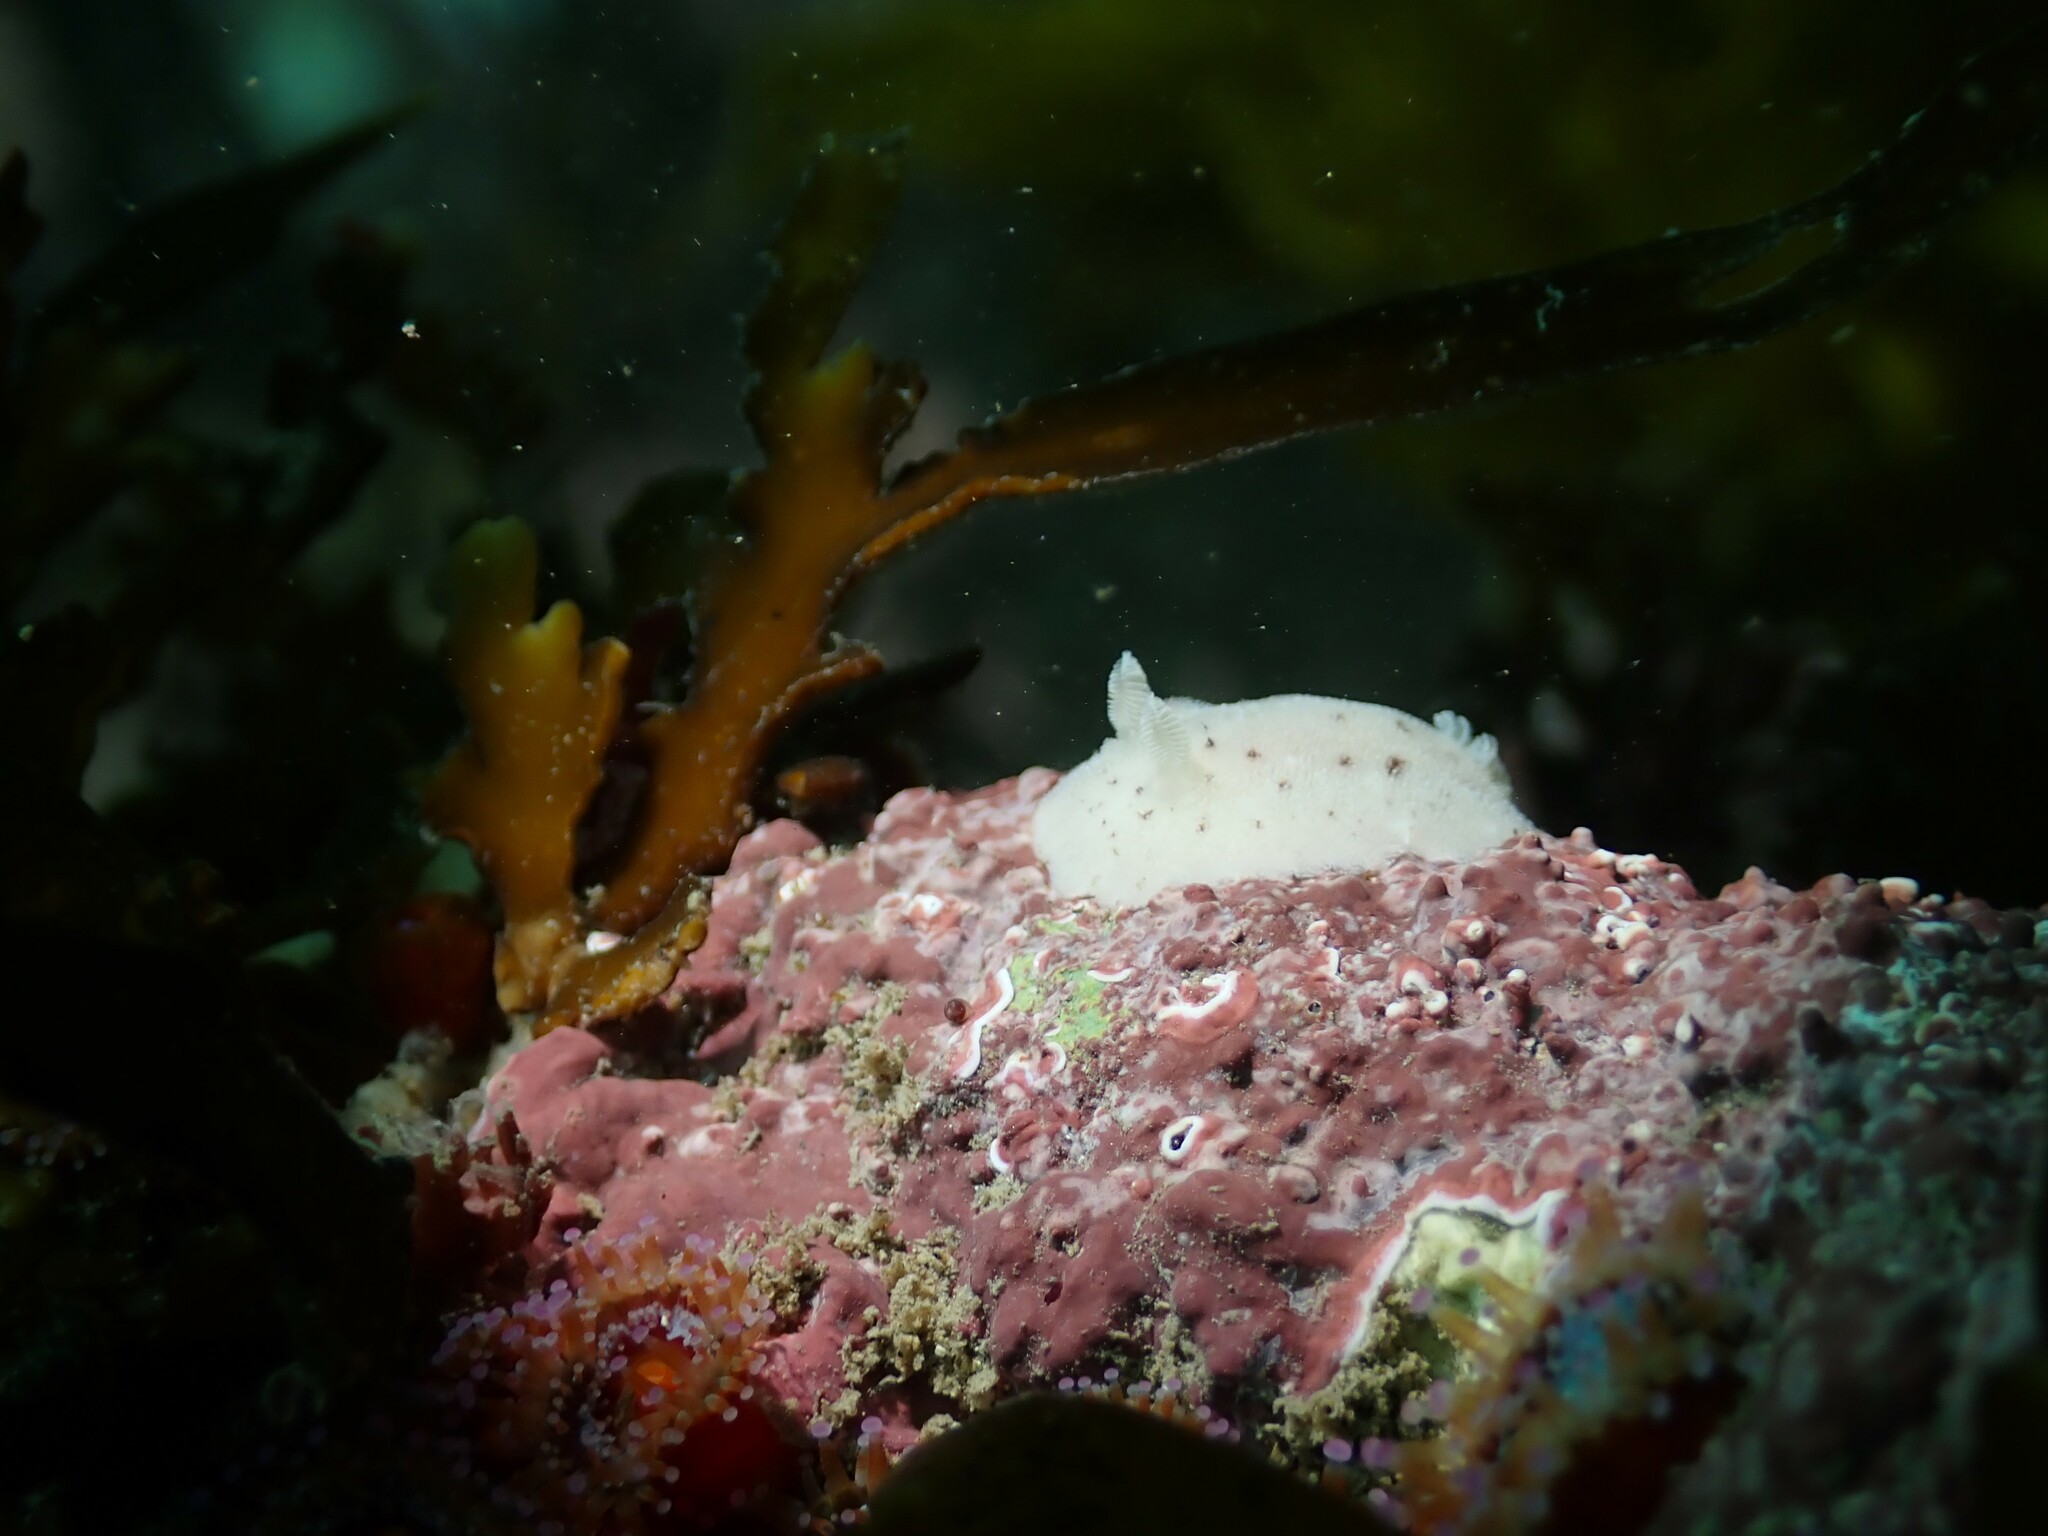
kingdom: Animalia
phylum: Mollusca
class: Gastropoda
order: Nudibranchia
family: Discodorididae
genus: Alloiodoris
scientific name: Alloiodoris lanuginata
